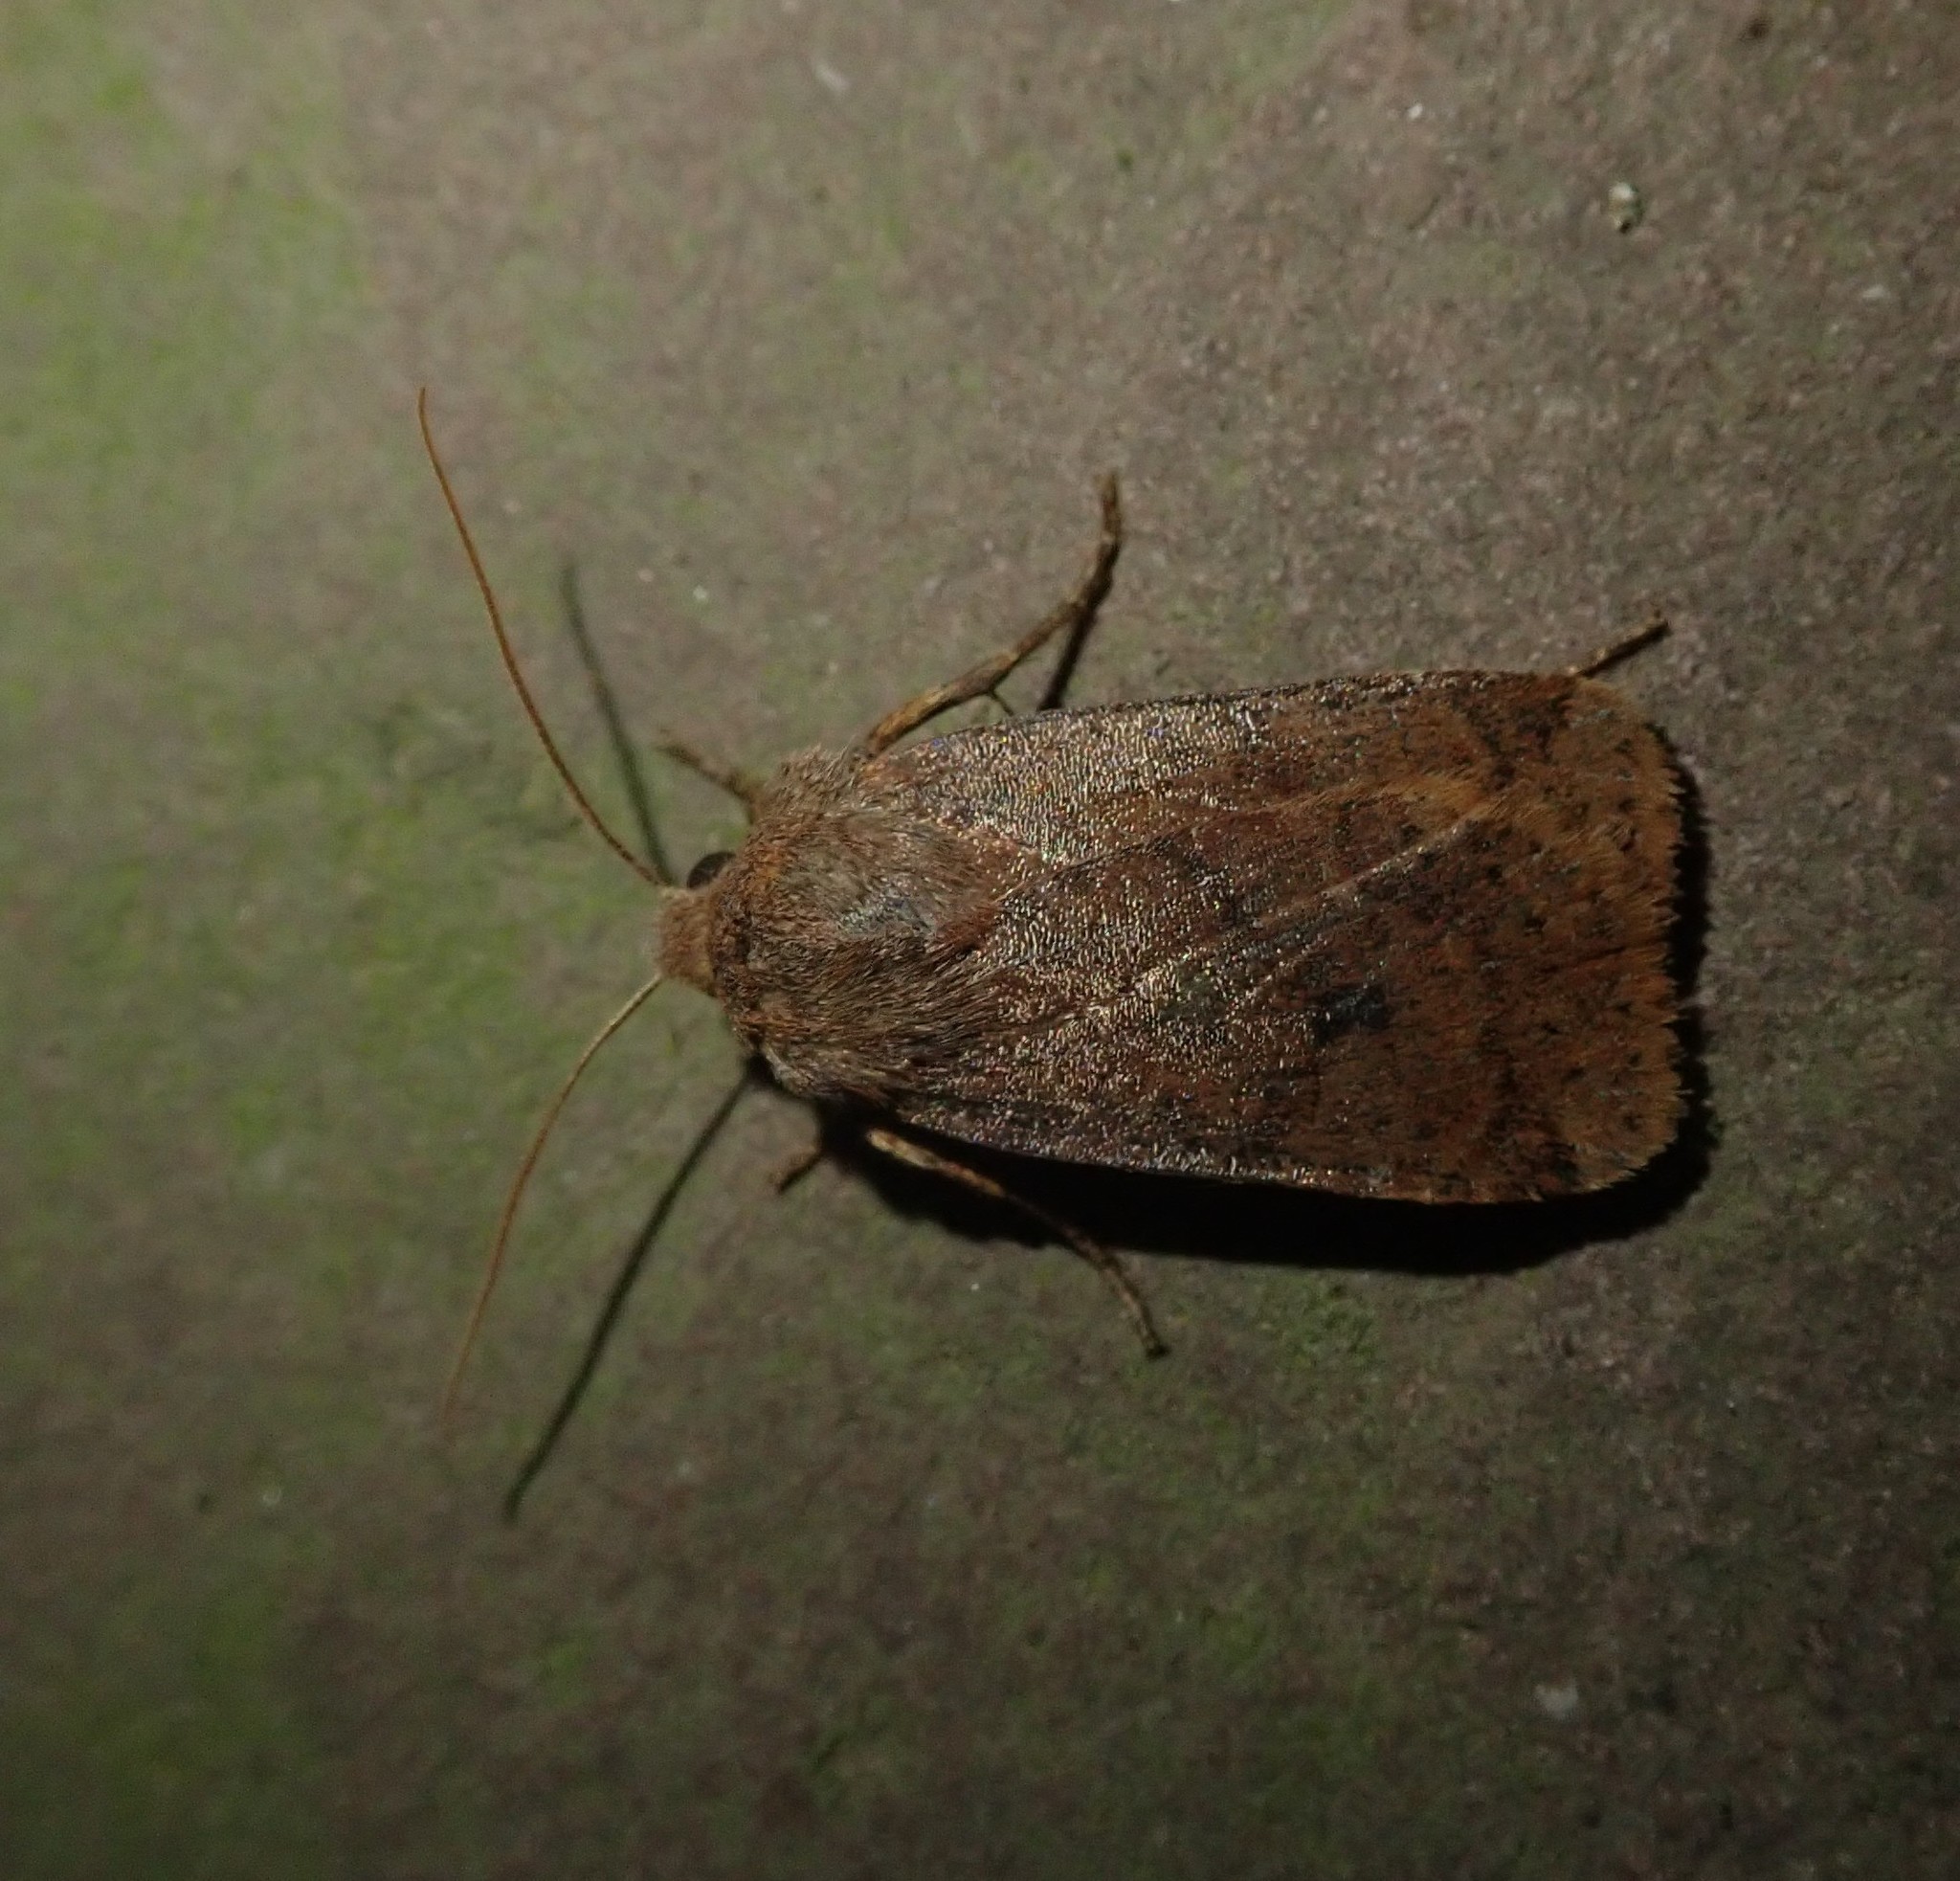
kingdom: Animalia
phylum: Arthropoda
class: Insecta
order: Lepidoptera
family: Noctuidae
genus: Conistra
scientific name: Conistra vaccinii
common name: Chestnut
